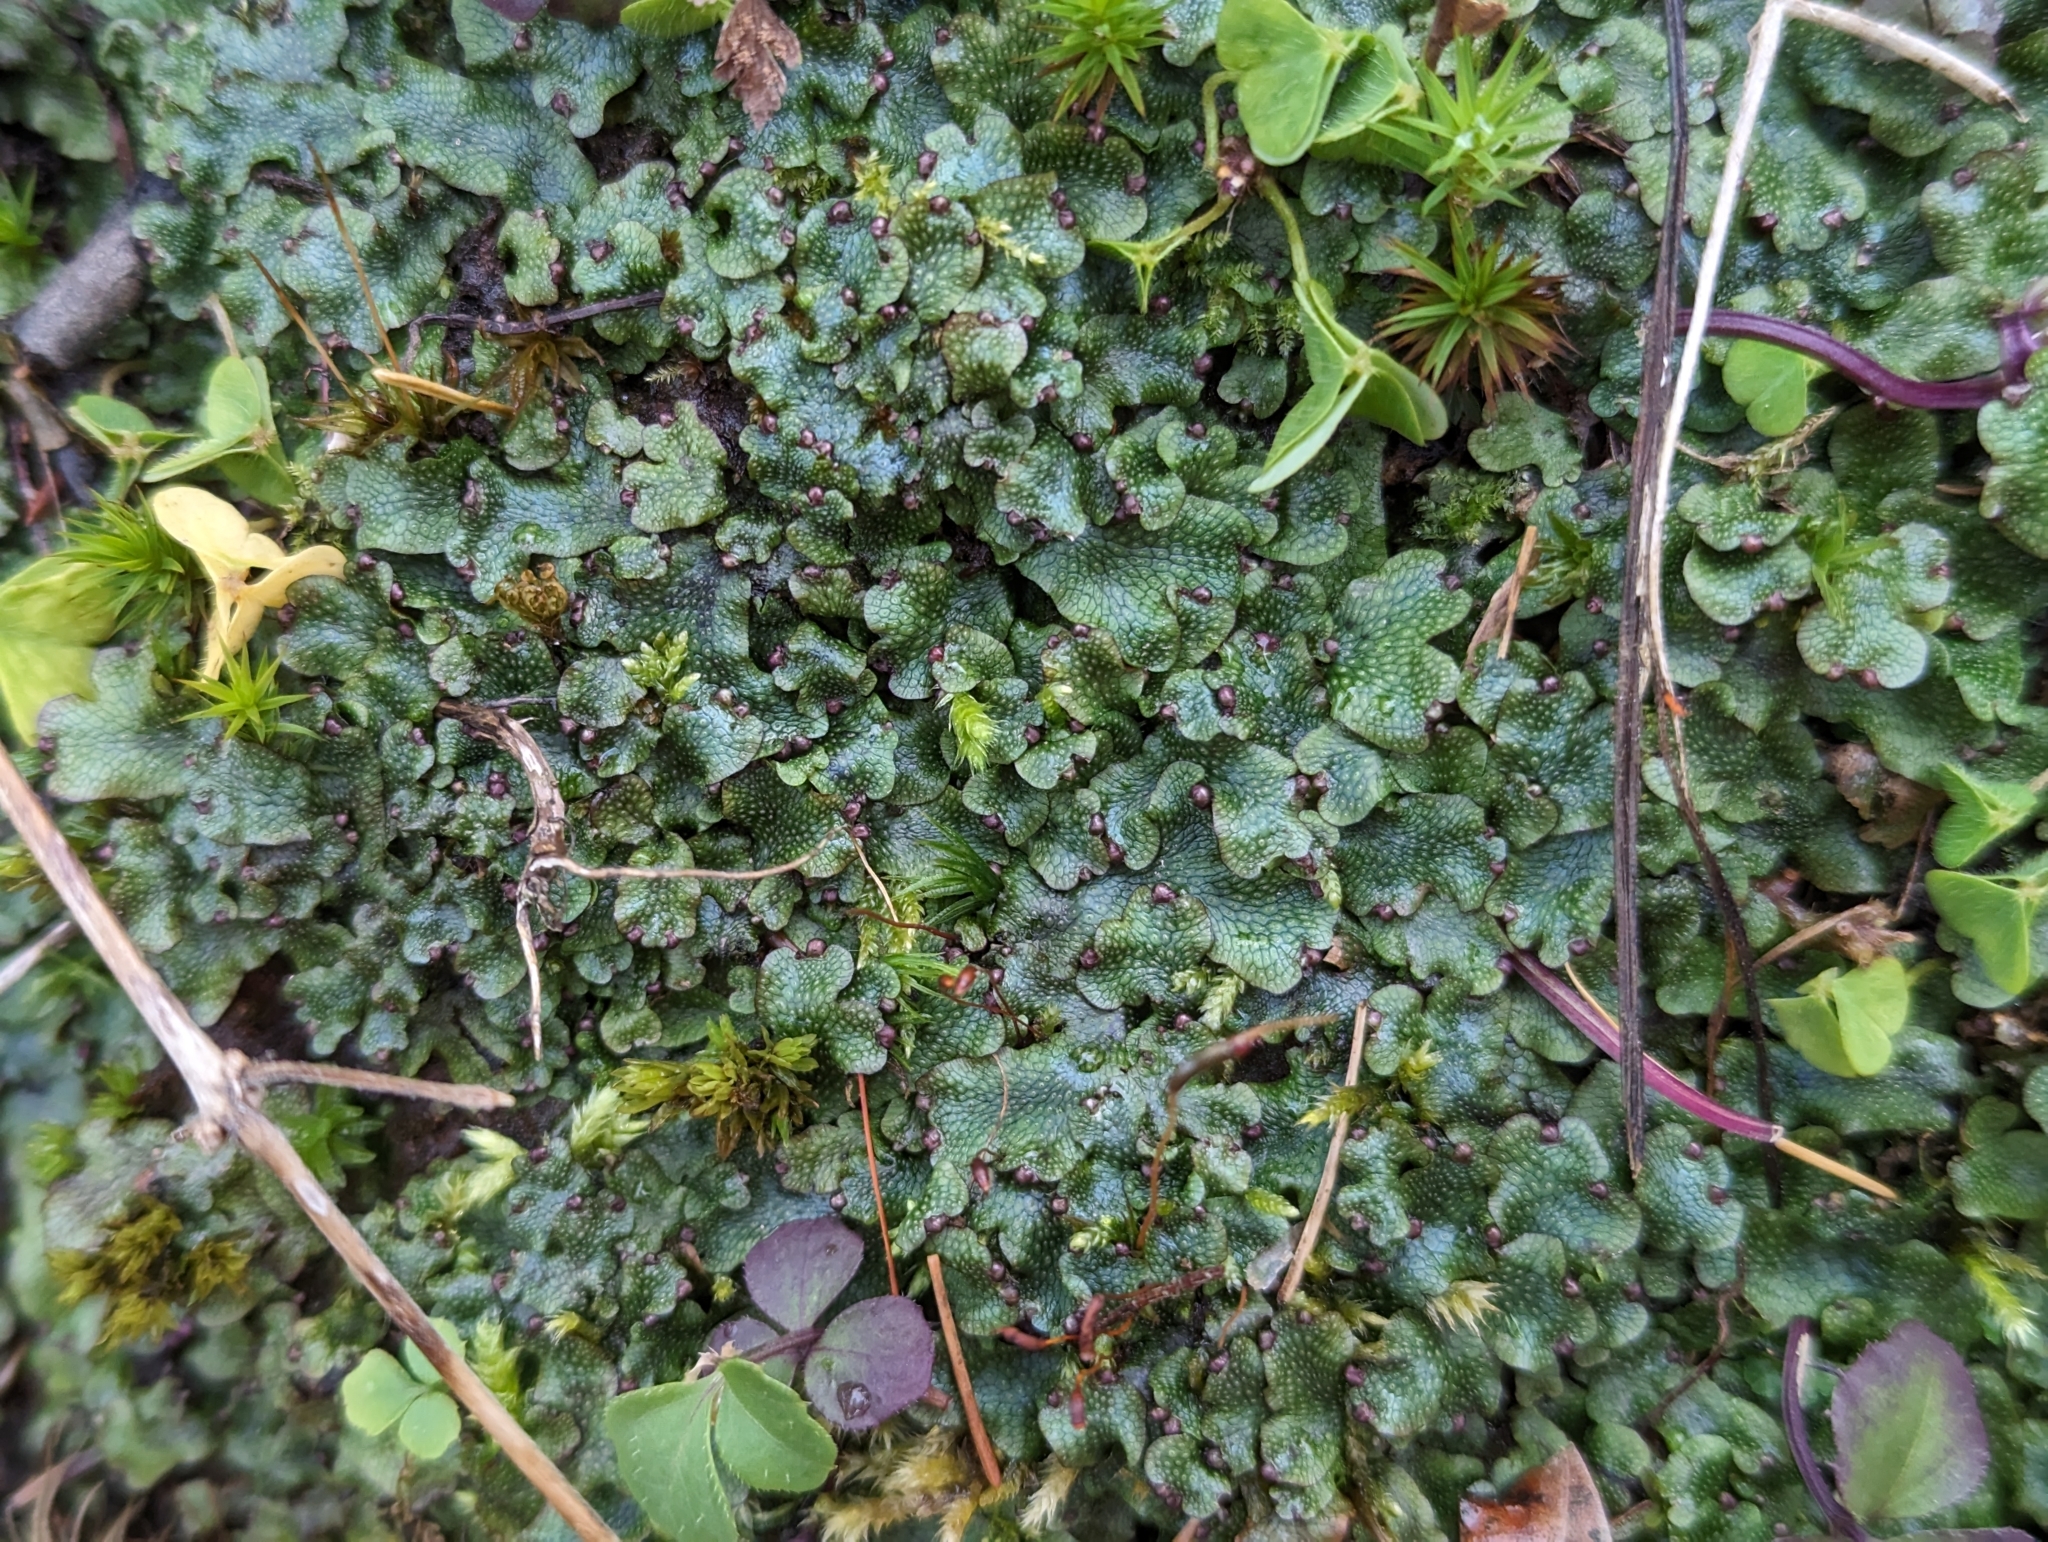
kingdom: Plantae
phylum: Marchantiophyta
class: Marchantiopsida
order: Marchantiales
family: Conocephalaceae
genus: Conocephalum
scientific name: Conocephalum salebrosum
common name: Cat-tongue liverwort
